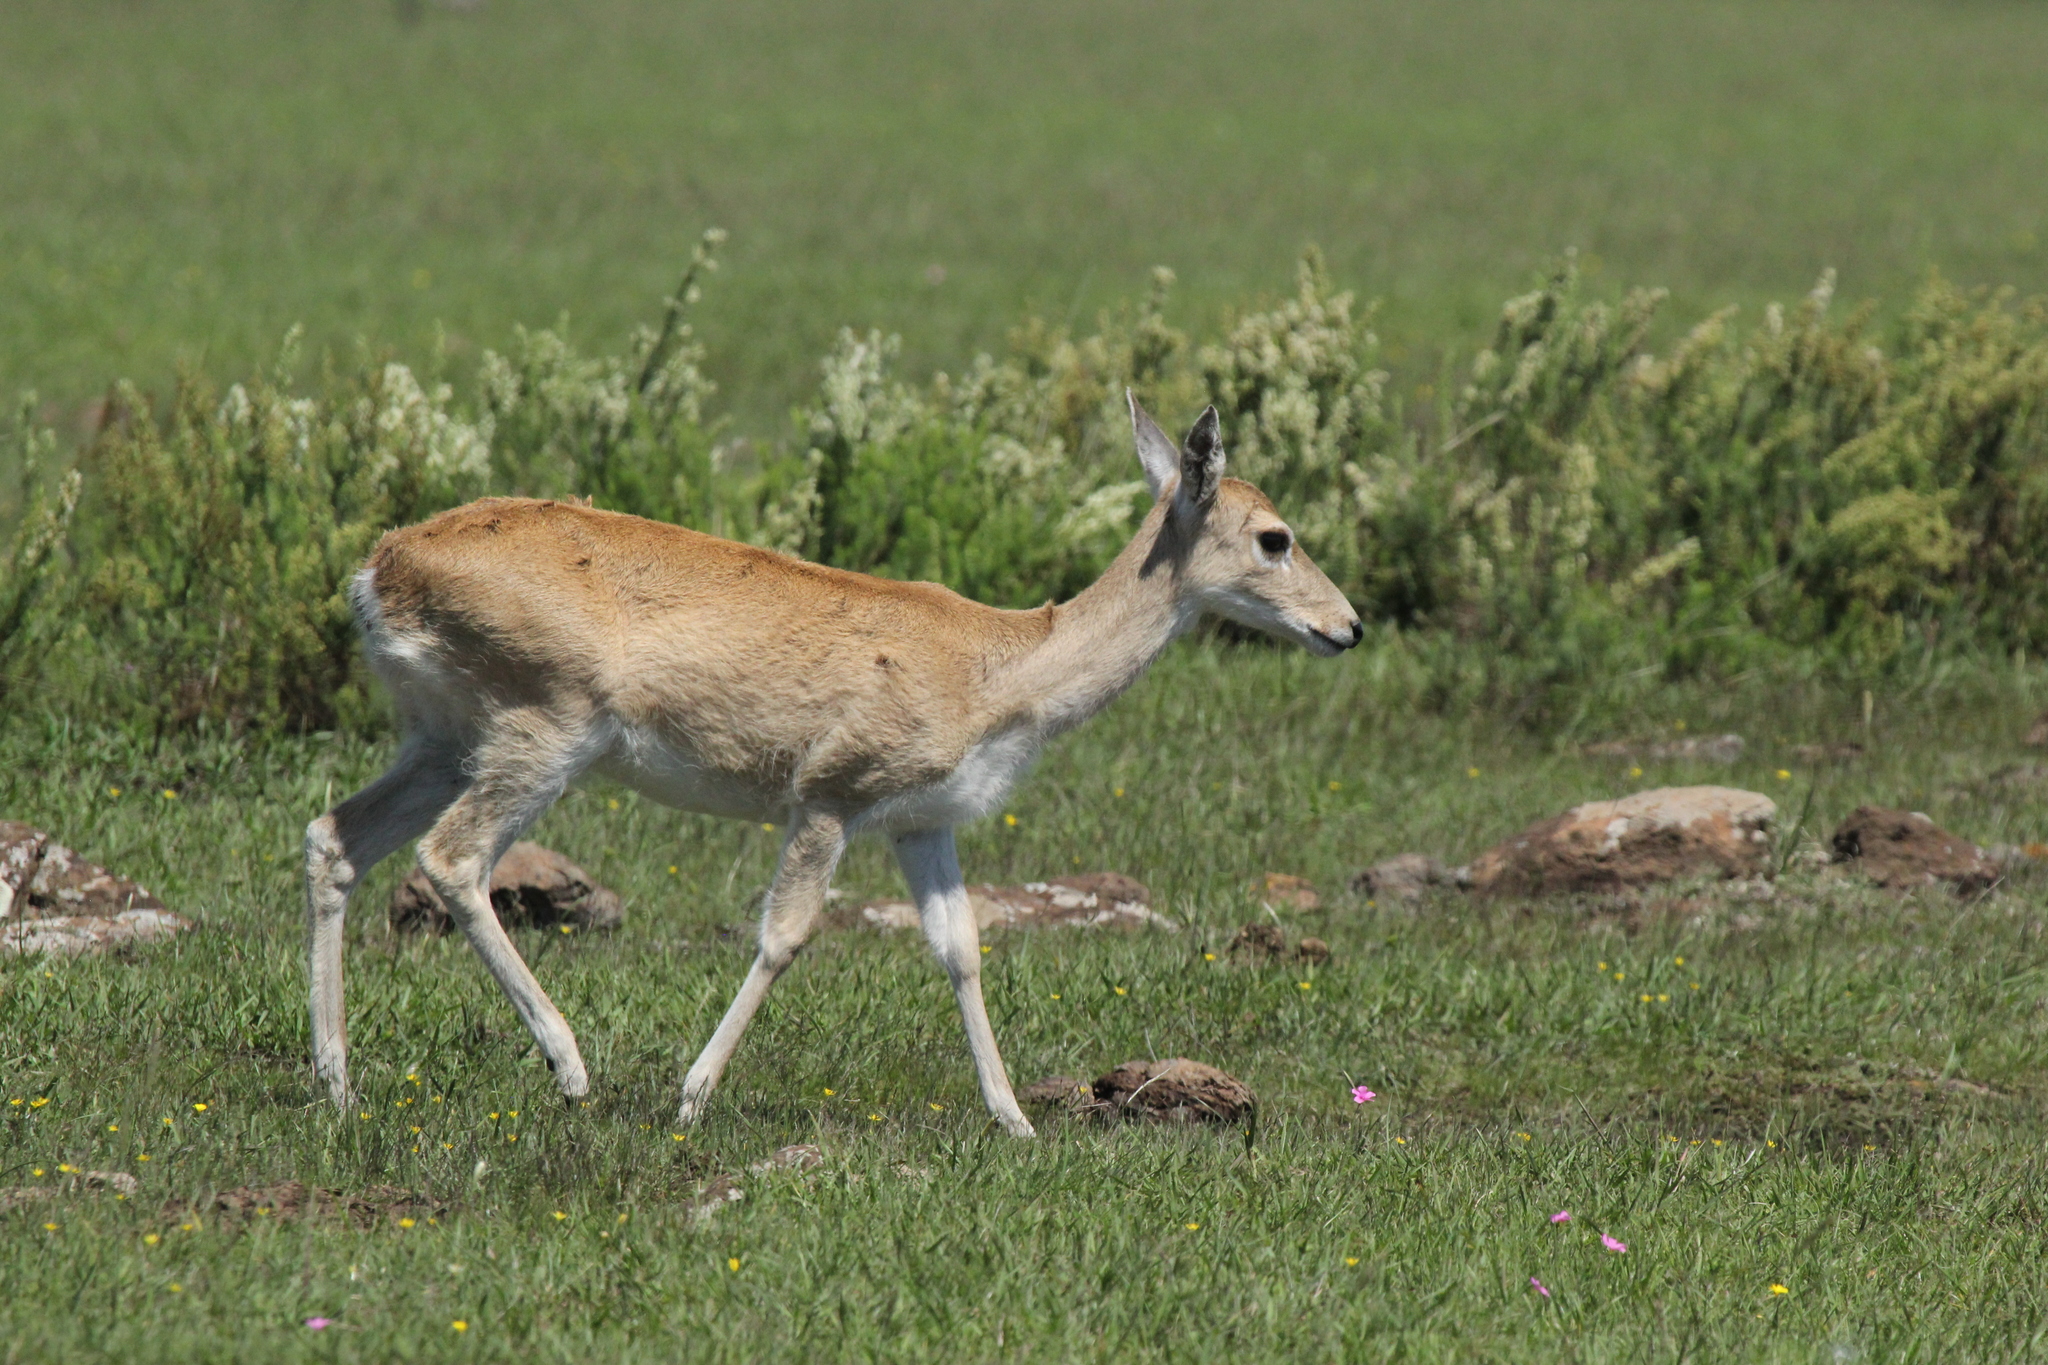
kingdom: Animalia
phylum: Chordata
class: Mammalia
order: Artiodactyla
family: Cervidae
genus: Ozotoceros
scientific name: Ozotoceros bezoarticus
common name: Pampas deer
